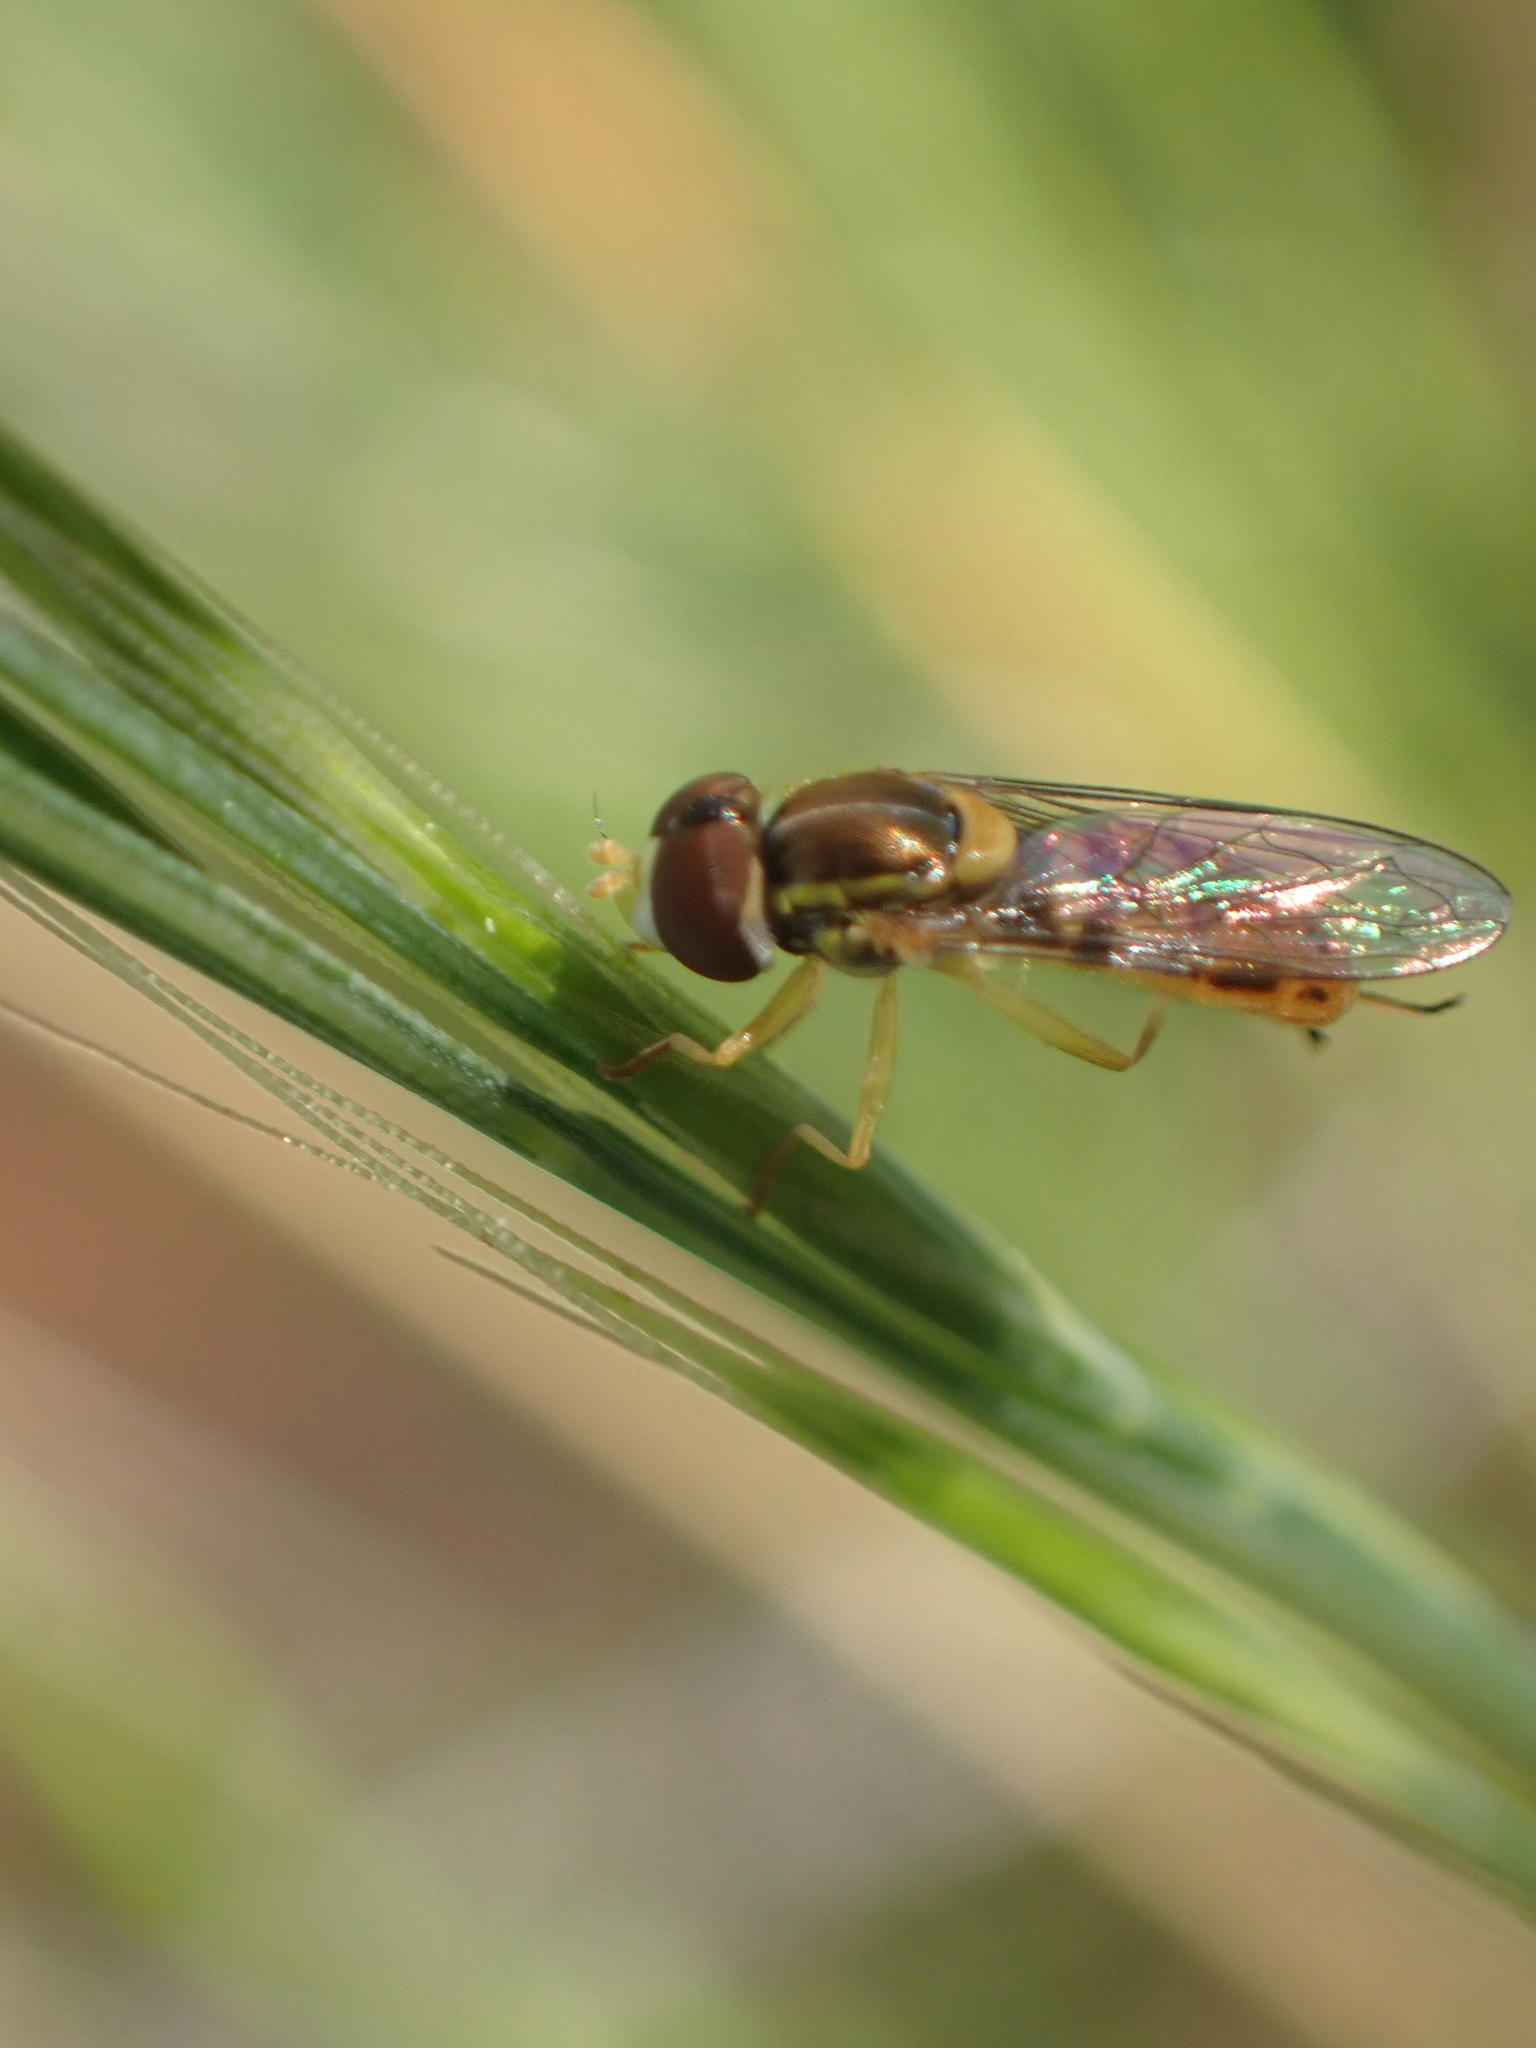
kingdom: Animalia
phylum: Arthropoda
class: Insecta
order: Diptera
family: Syrphidae
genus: Toxomerus
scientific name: Toxomerus marginatus
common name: Syrphid fly
